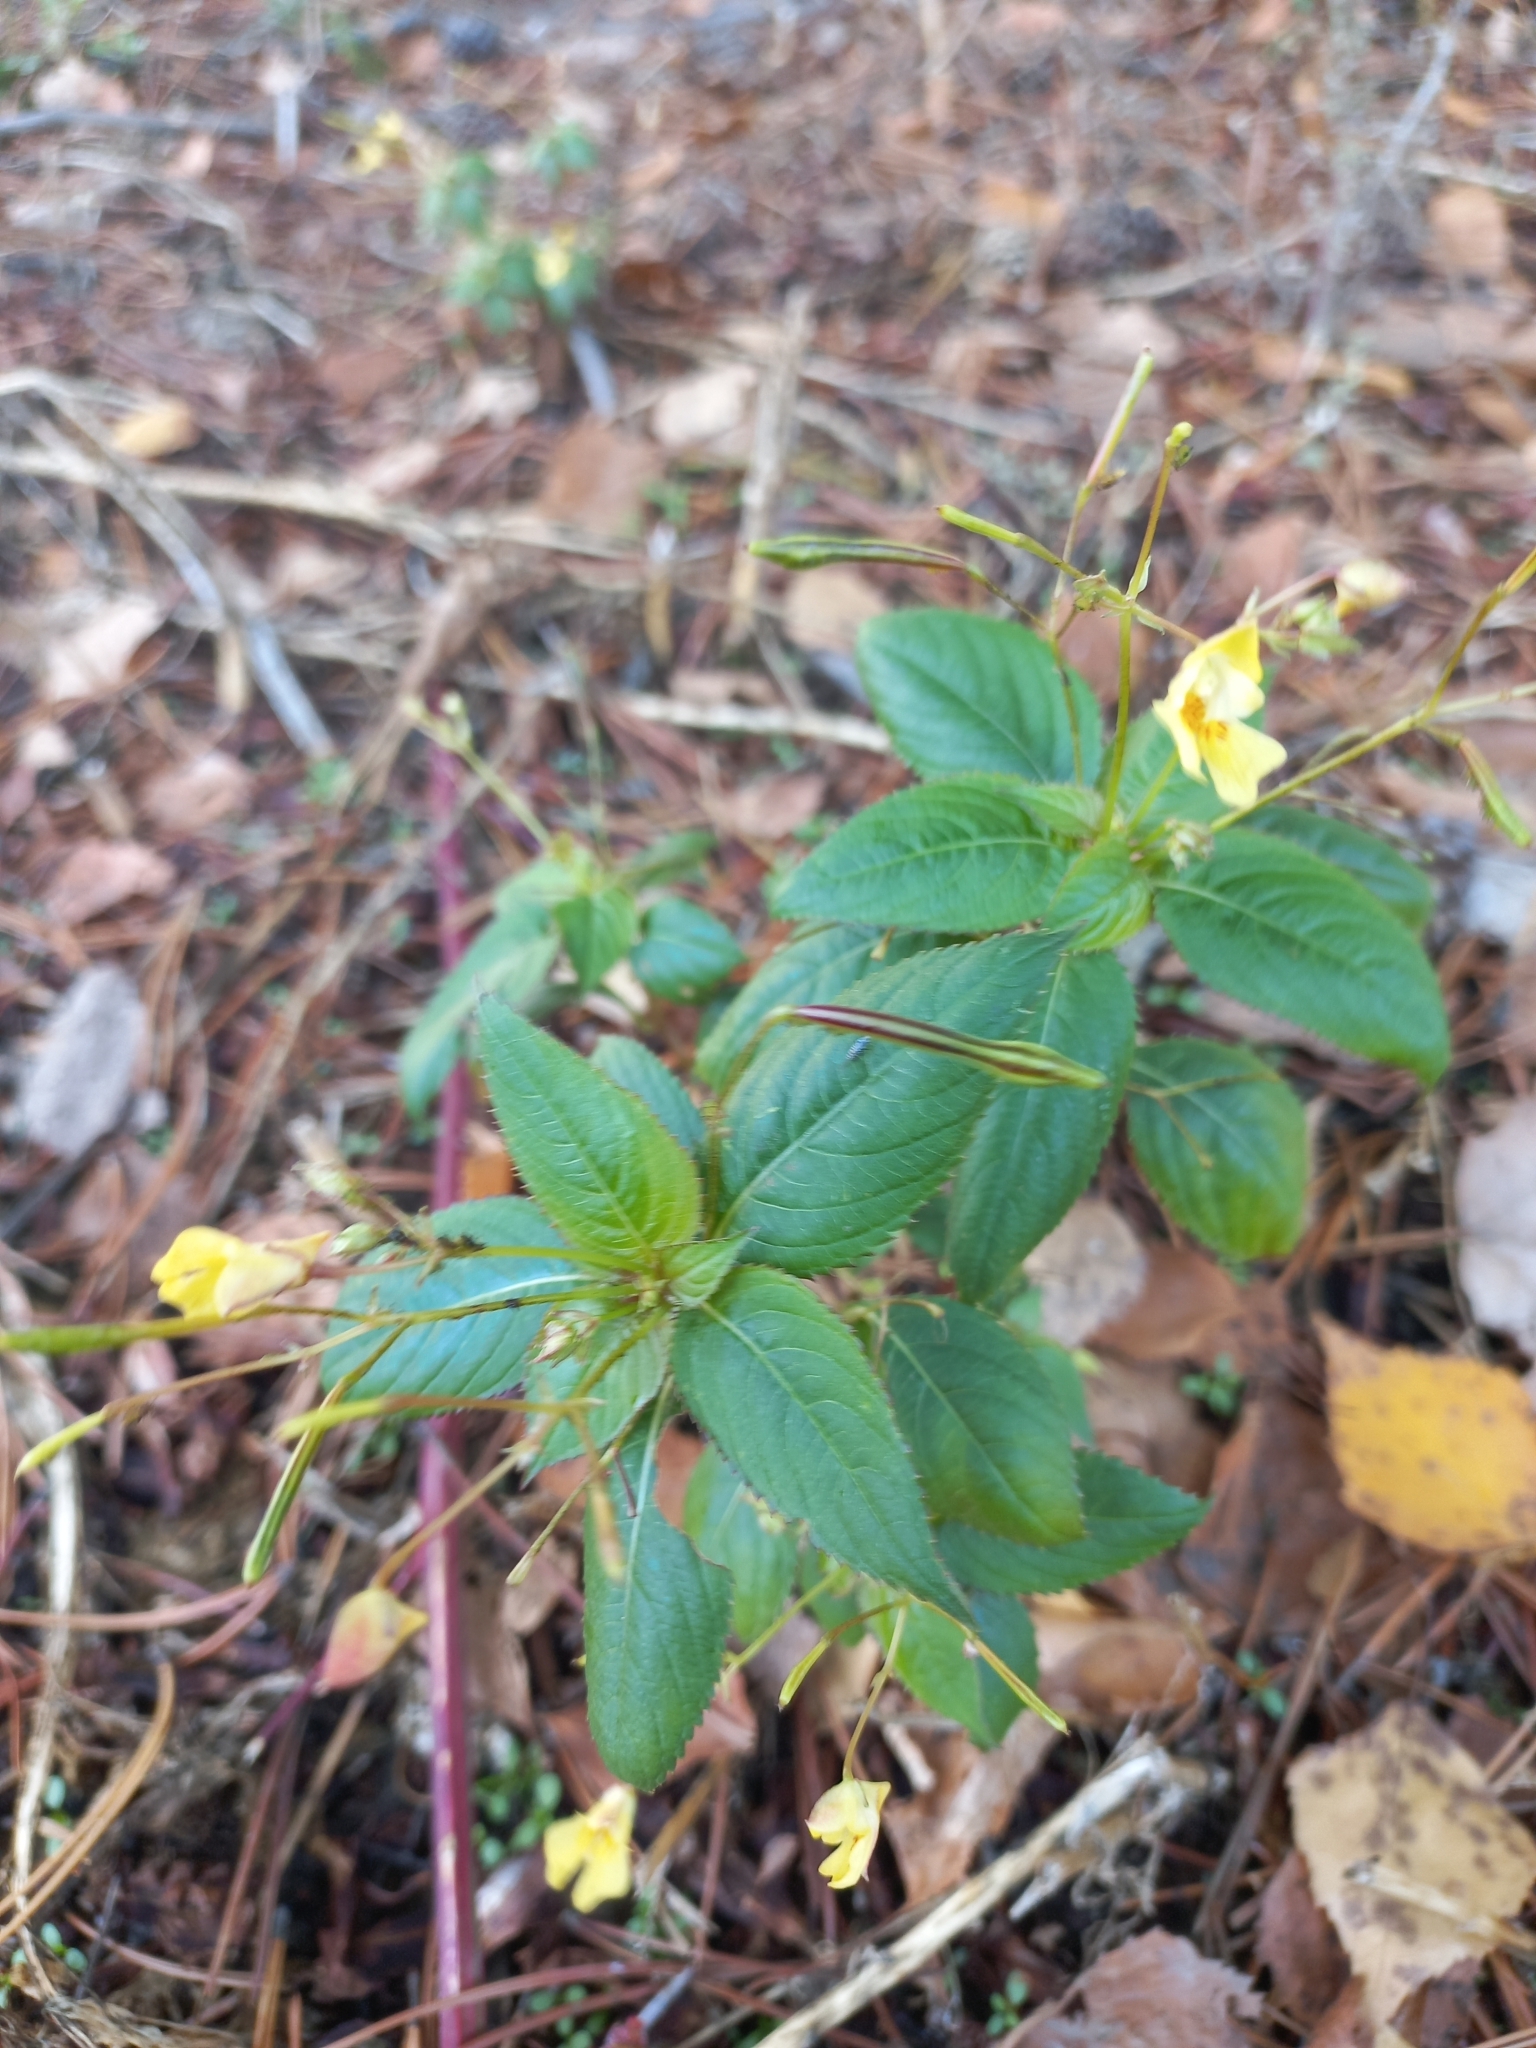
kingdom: Plantae
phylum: Tracheophyta
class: Magnoliopsida
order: Ericales
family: Balsaminaceae
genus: Impatiens
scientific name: Impatiens parviflora
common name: Small balsam
